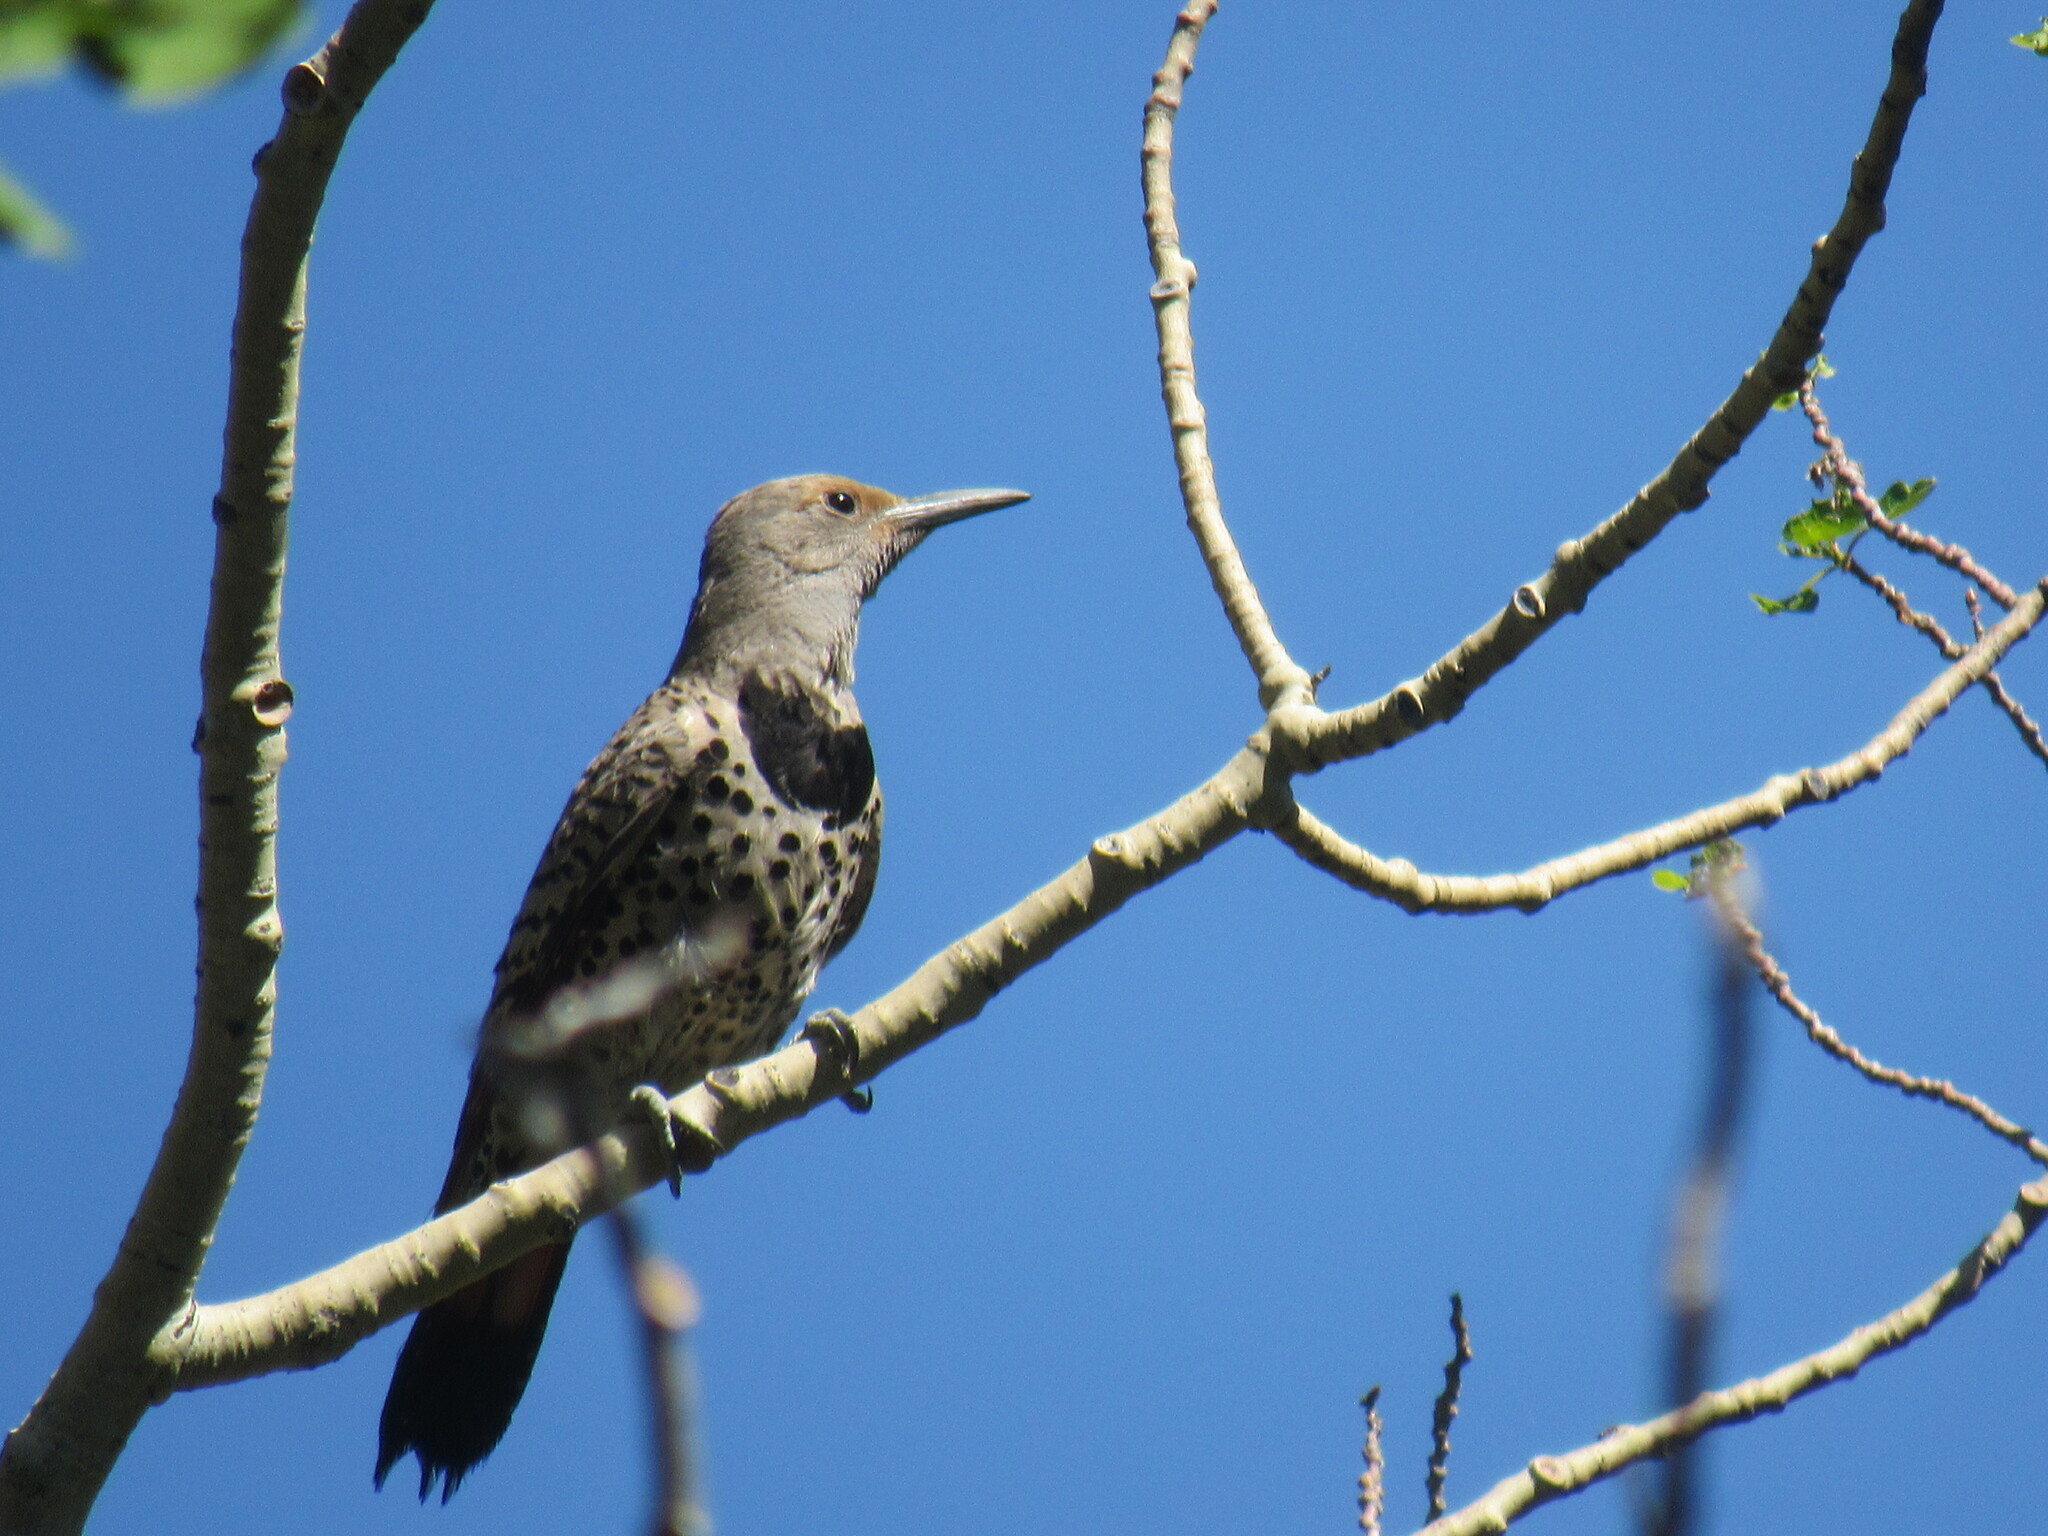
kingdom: Animalia
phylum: Chordata
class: Aves
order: Piciformes
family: Picidae
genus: Colaptes
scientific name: Colaptes auratus
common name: Northern flicker
